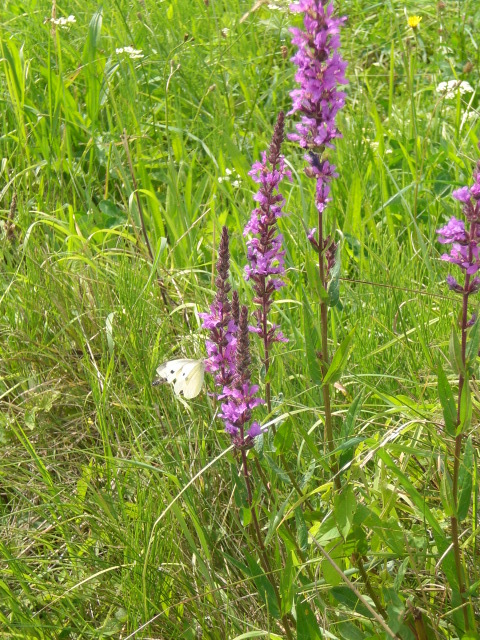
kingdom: Animalia
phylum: Arthropoda
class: Insecta
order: Lepidoptera
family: Pieridae
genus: Pieris
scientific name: Pieris rapae
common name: Small white
